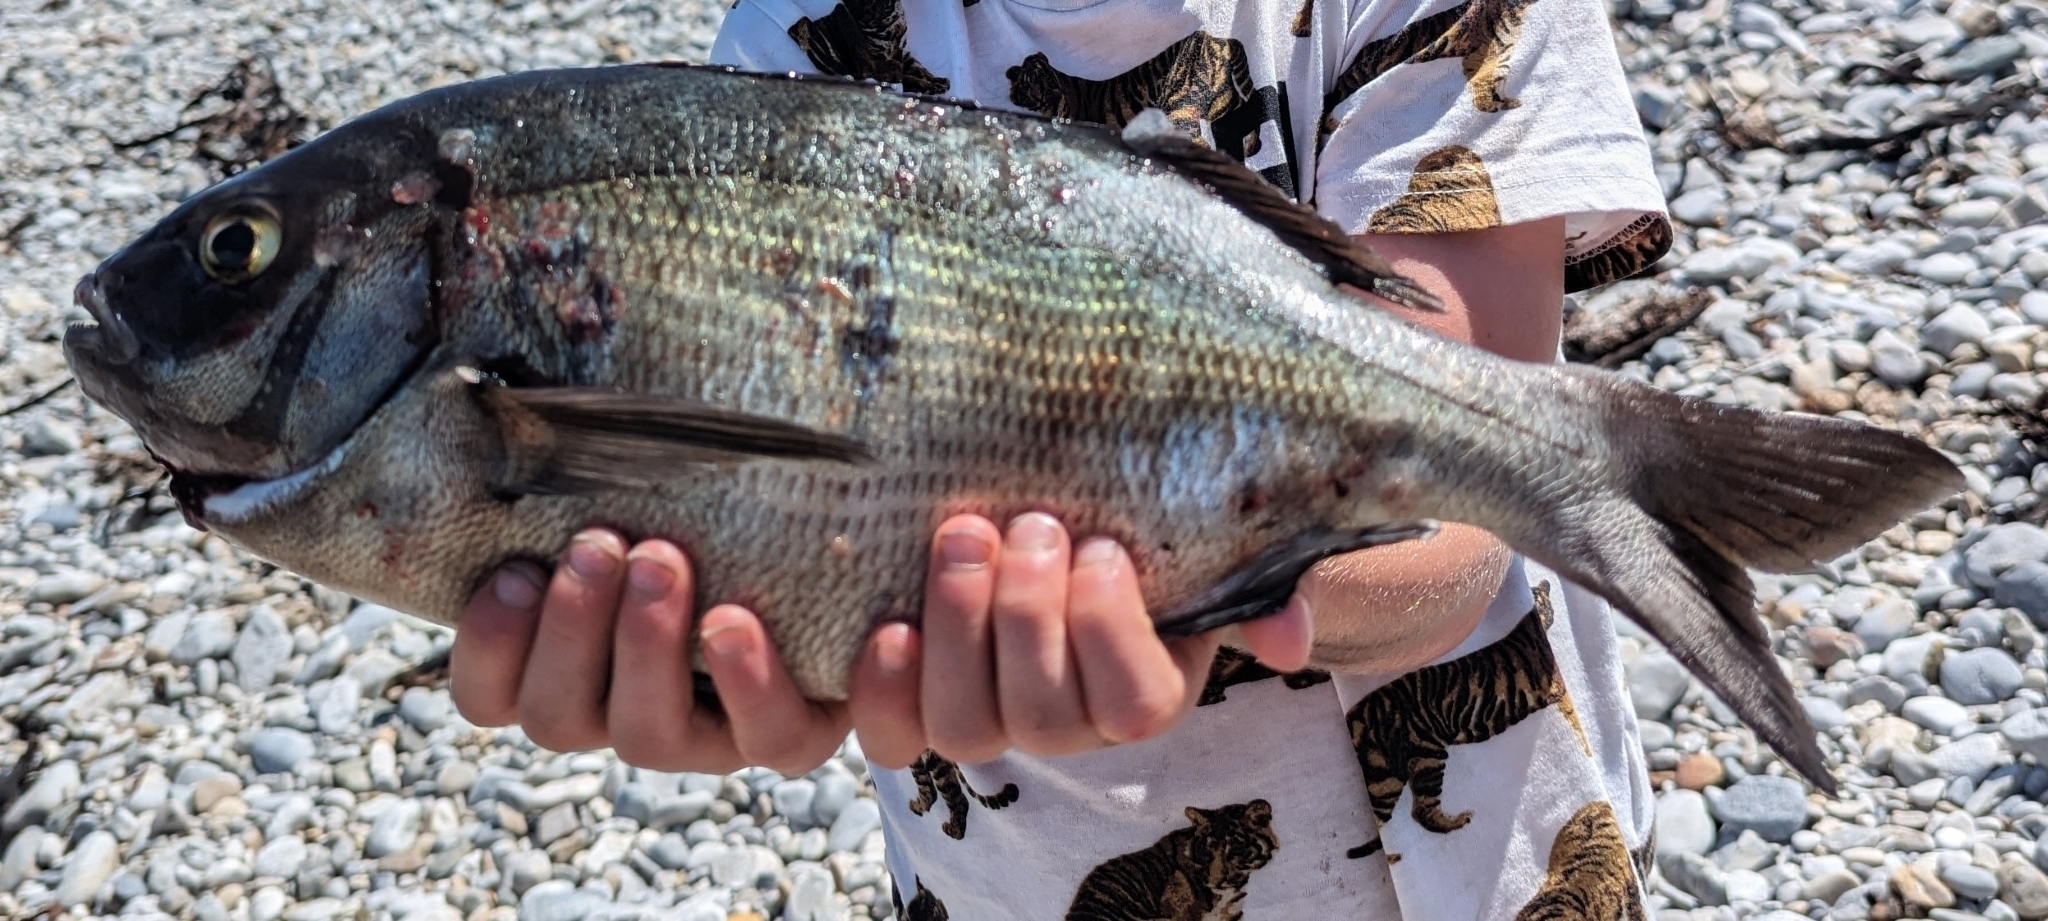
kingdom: Animalia
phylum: Chordata
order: Perciformes
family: Sparidae
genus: Pachymetopon
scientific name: Pachymetopon blochii
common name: Hottentot
